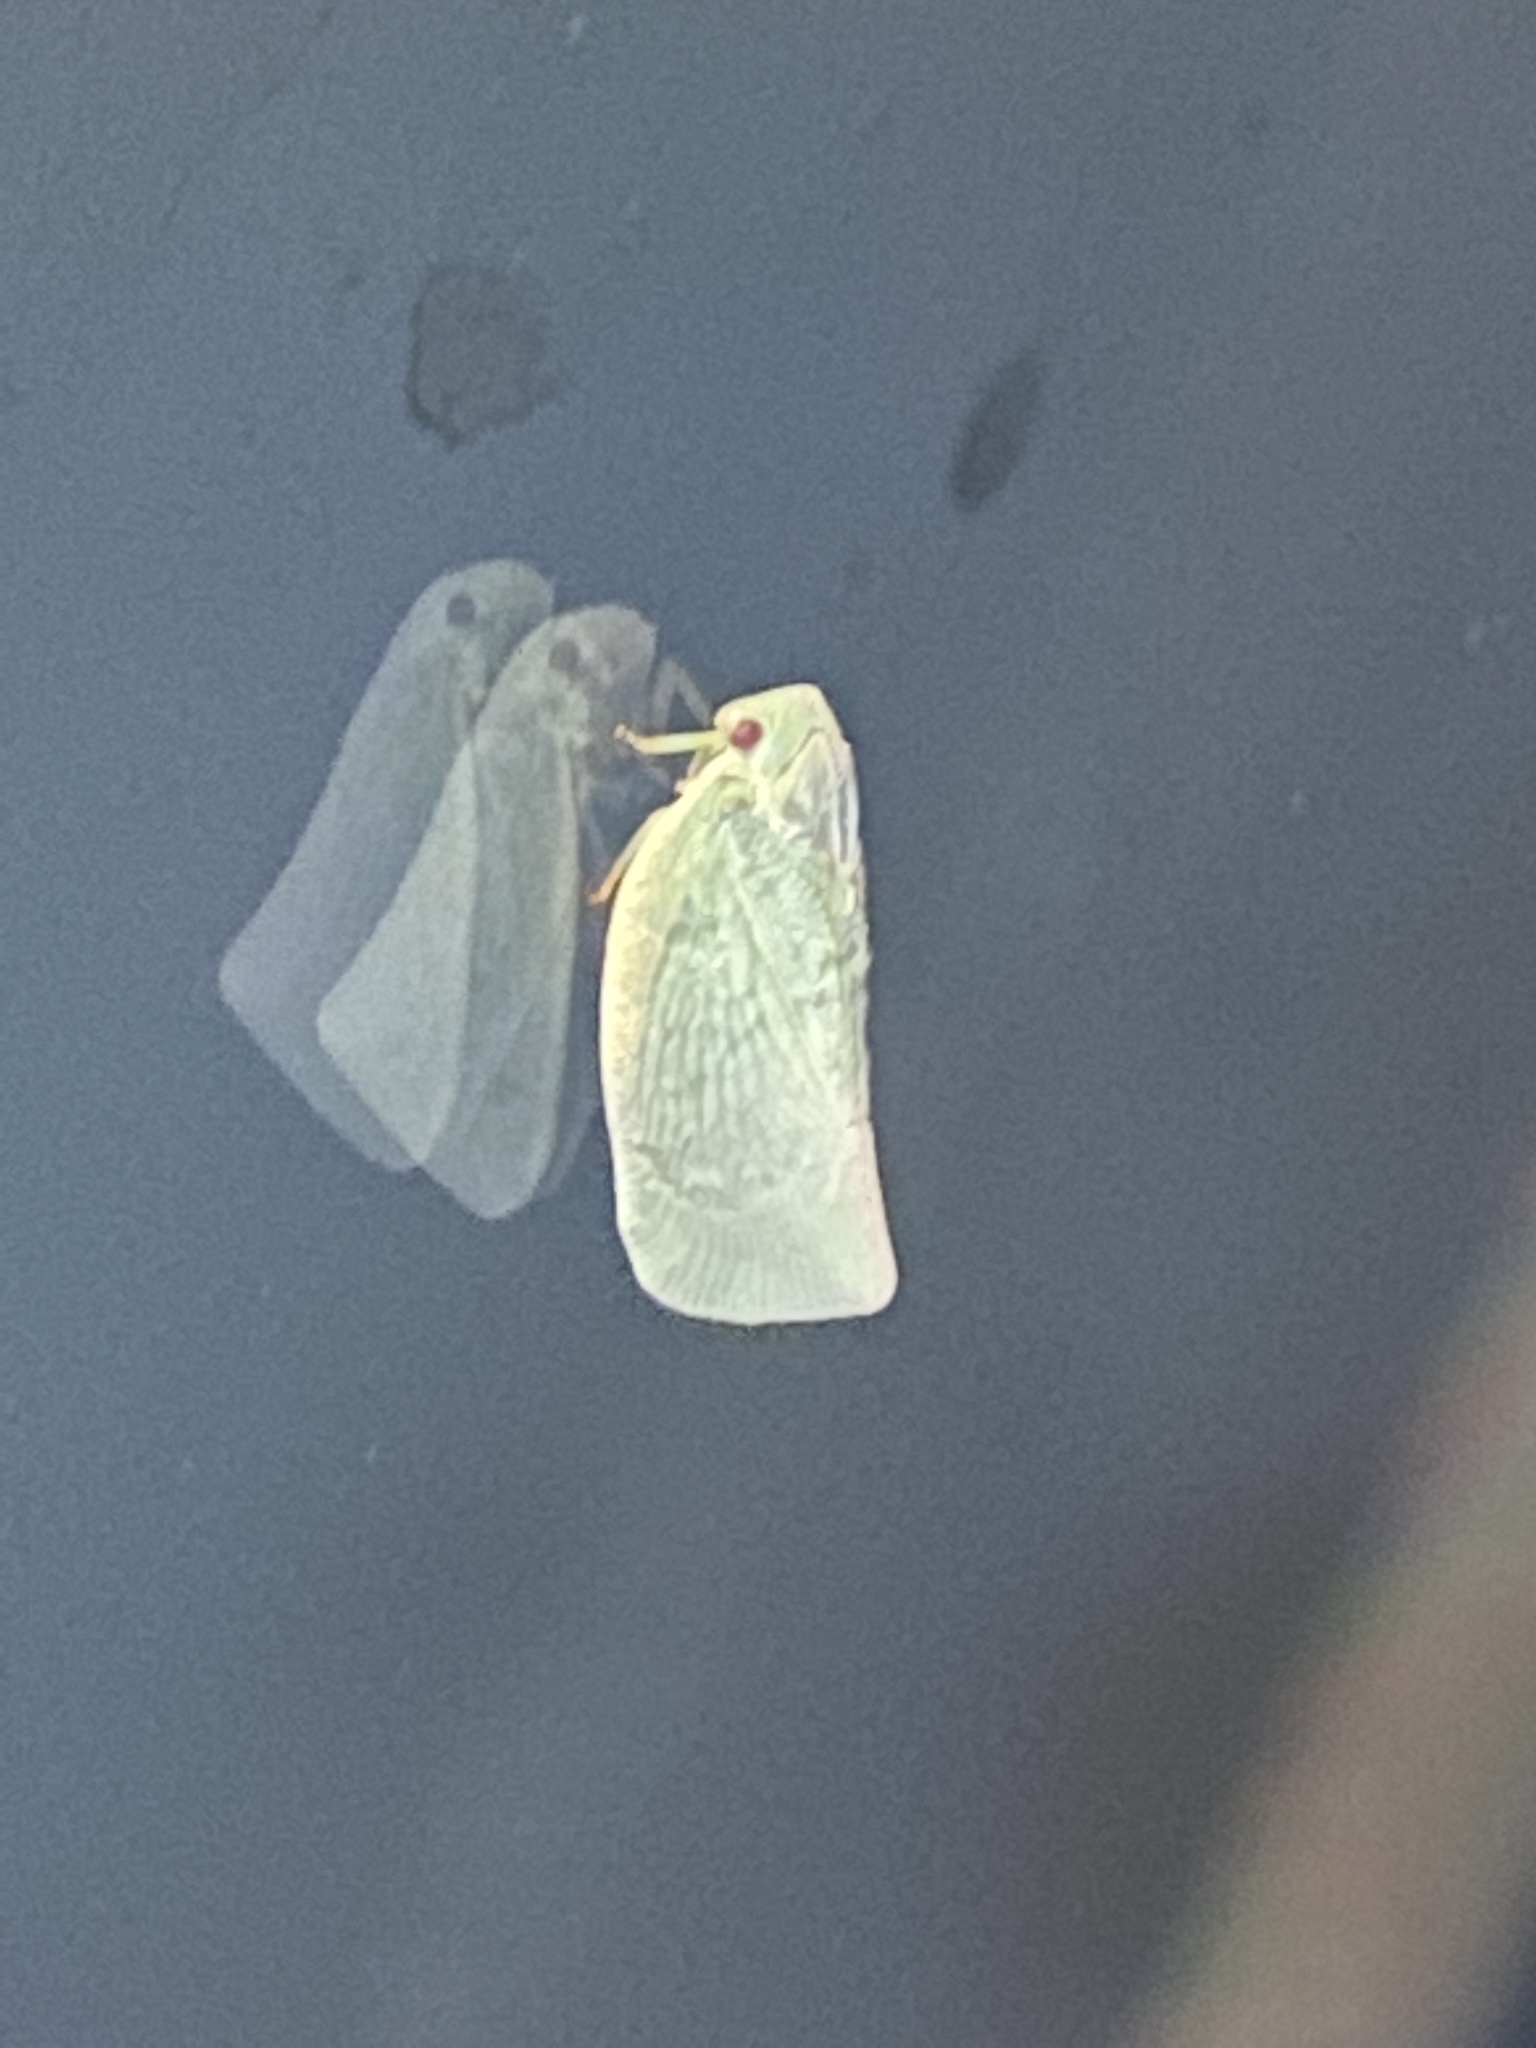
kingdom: Animalia
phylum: Arthropoda
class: Insecta
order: Hemiptera
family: Flatidae
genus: Flatormenis
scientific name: Flatormenis proxima
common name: Northern flatid planthopper
